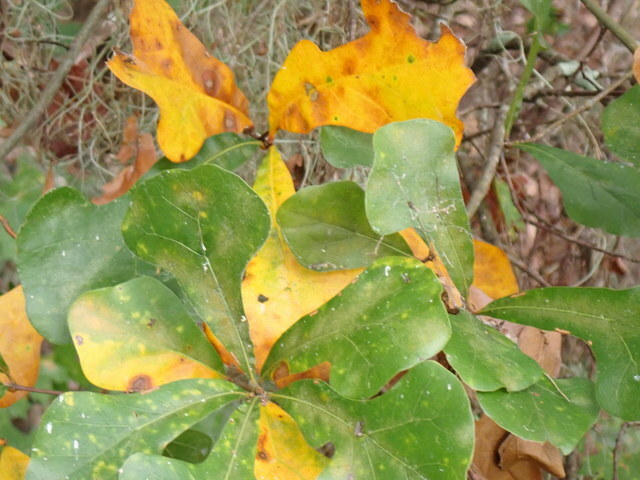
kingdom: Plantae
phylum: Tracheophyta
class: Magnoliopsida
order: Fagales
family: Fagaceae
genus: Quercus
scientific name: Quercus nigra
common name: Water oak
